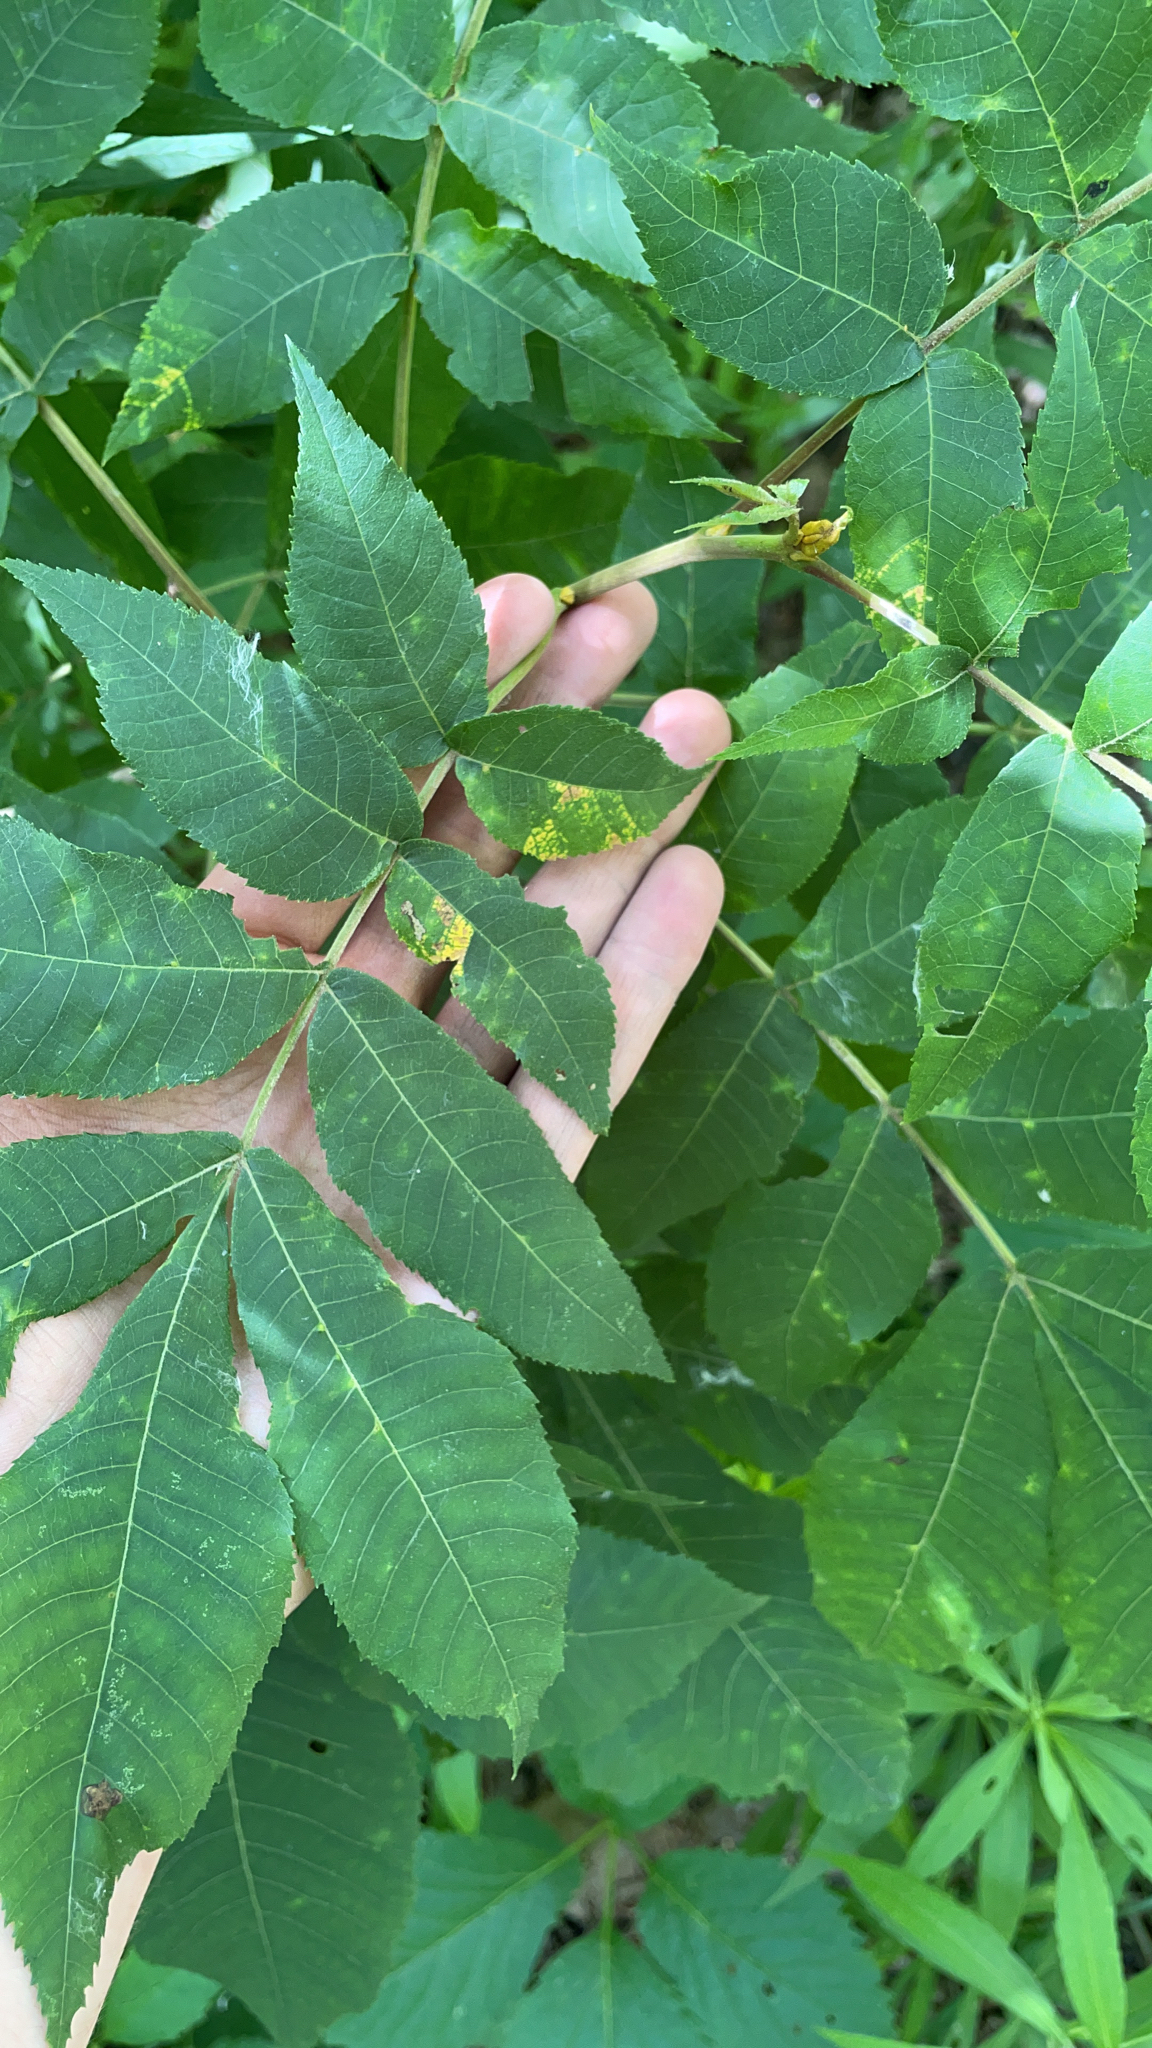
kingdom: Plantae
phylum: Tracheophyta
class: Magnoliopsida
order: Fagales
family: Juglandaceae
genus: Carya
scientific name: Carya cordiformis
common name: Bitternut hickory
